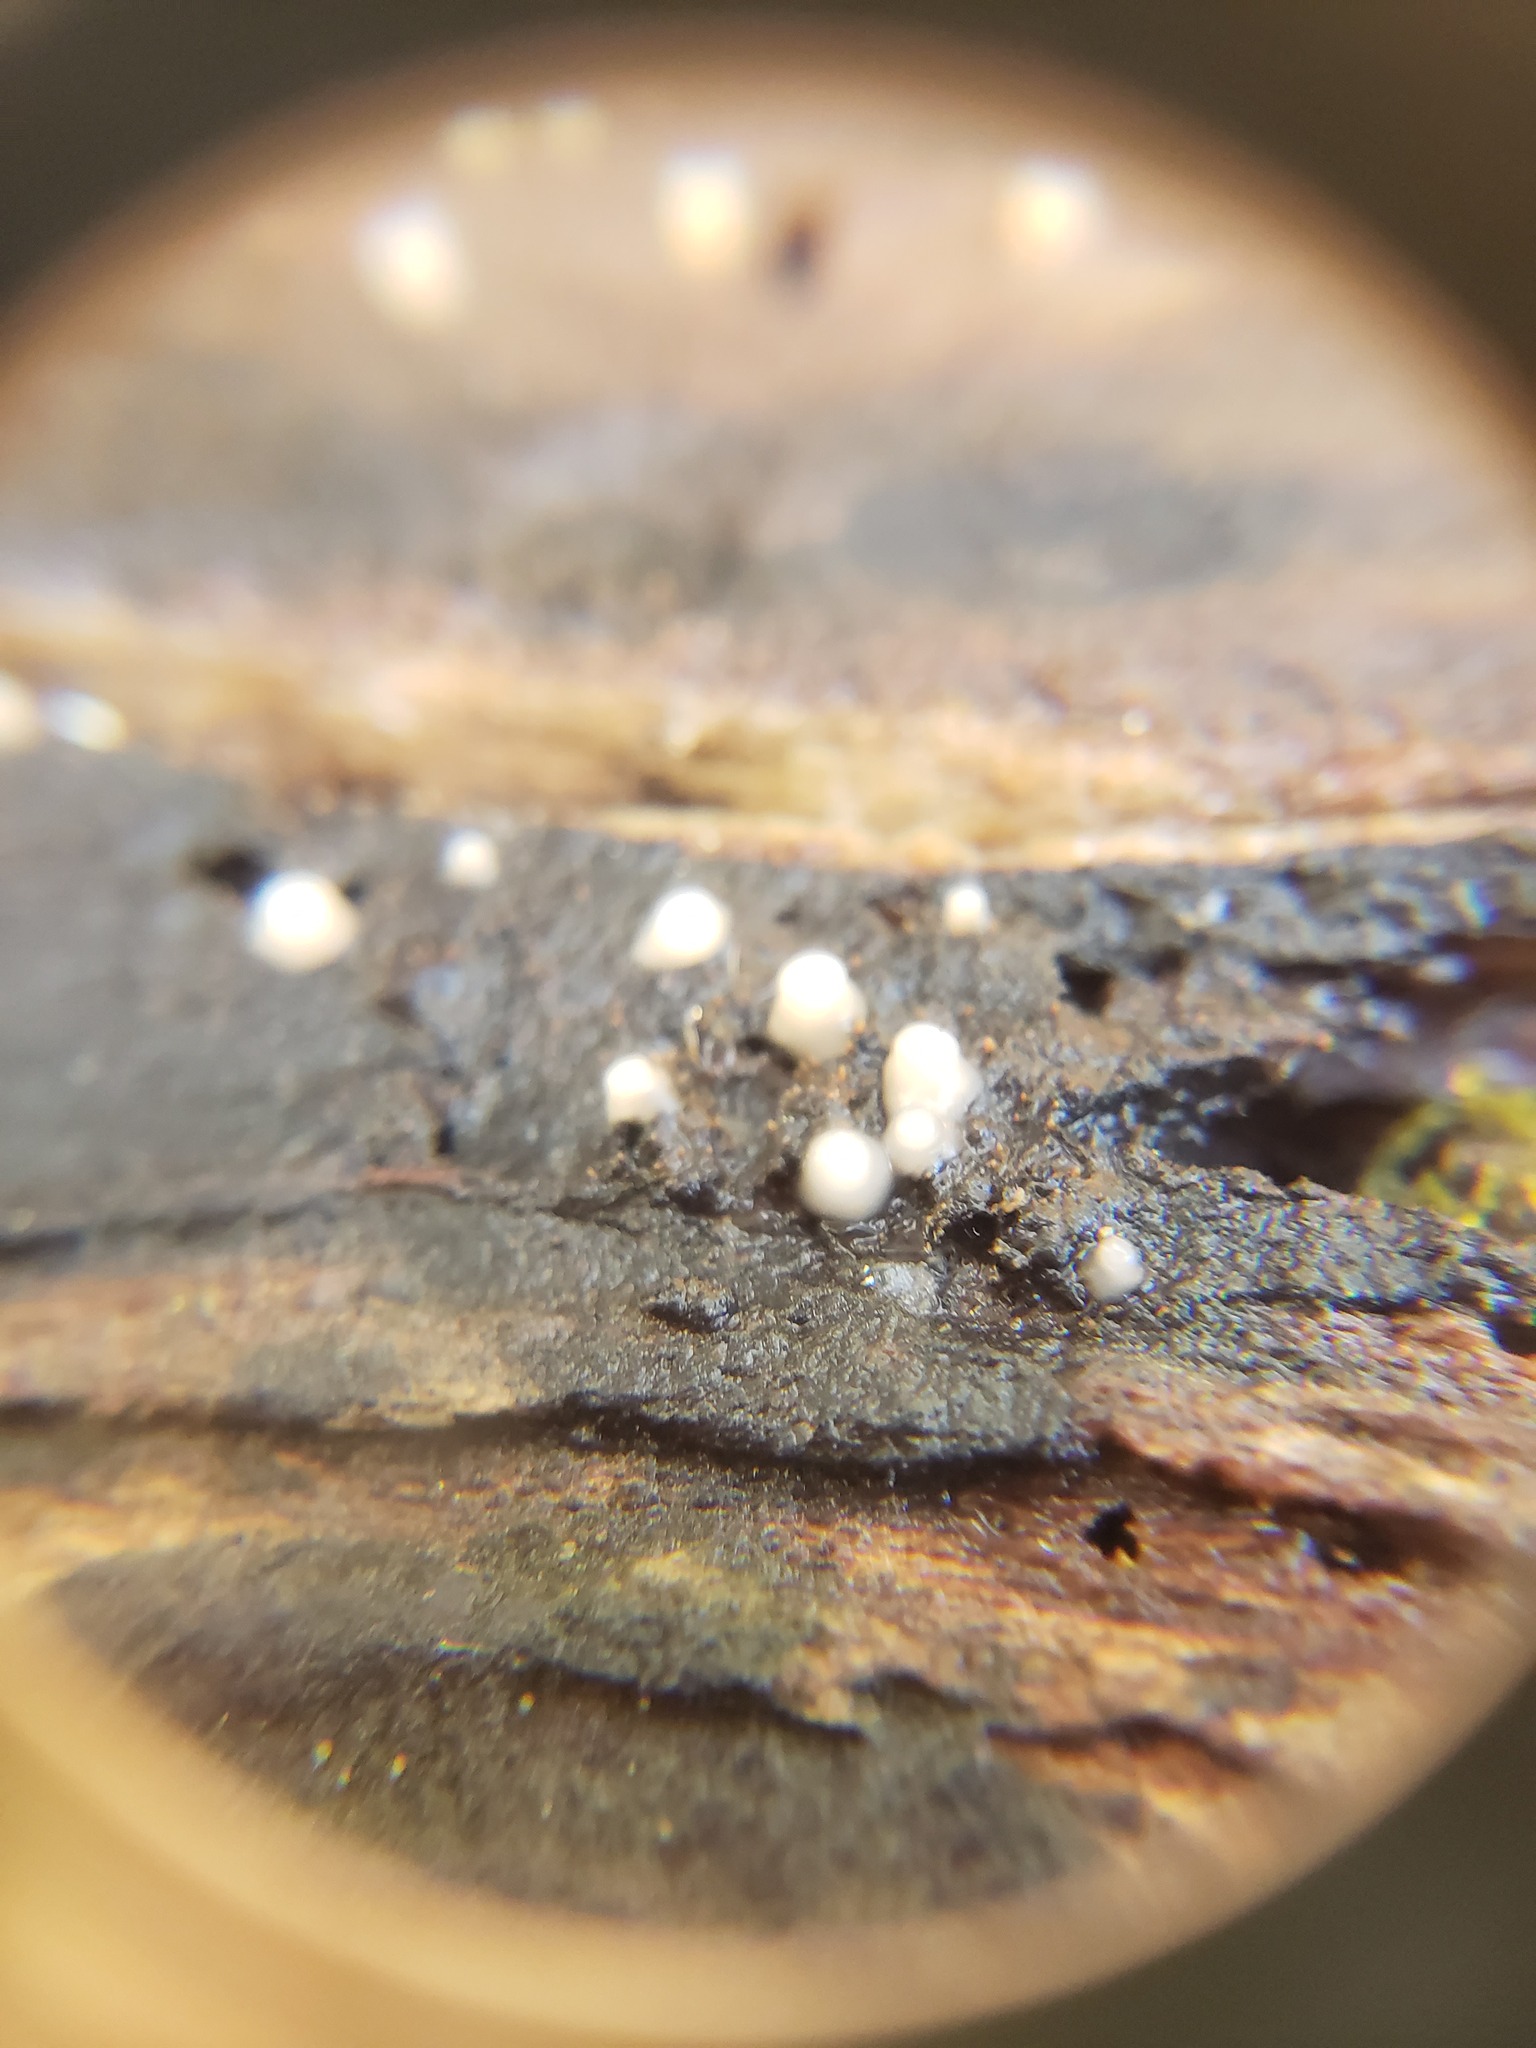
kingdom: Fungi
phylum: Basidiomycota
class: Atractiellomycetes
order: Atractiellales
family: Phleogenaceae
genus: Helicogloea
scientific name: Helicogloea compressa
